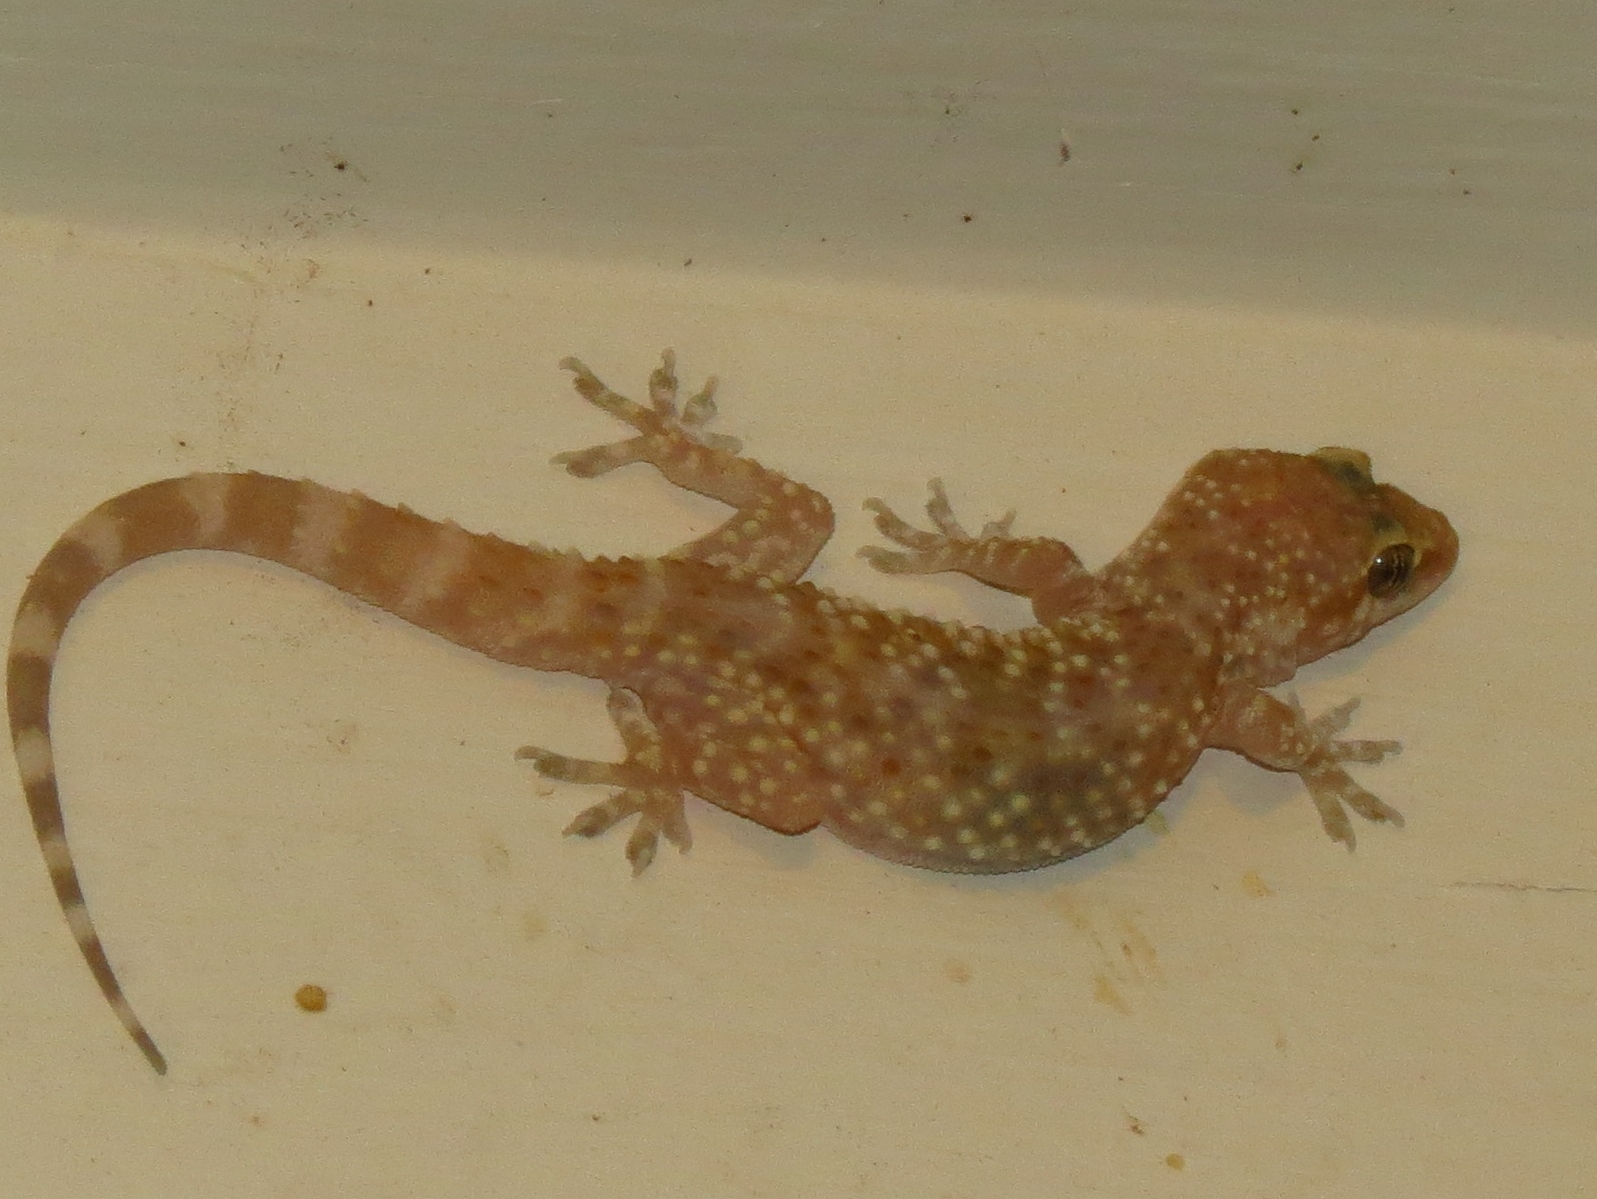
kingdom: Animalia
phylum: Chordata
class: Squamata
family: Gekkonidae
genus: Hemidactylus
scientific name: Hemidactylus turcicus
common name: Turkish gecko
